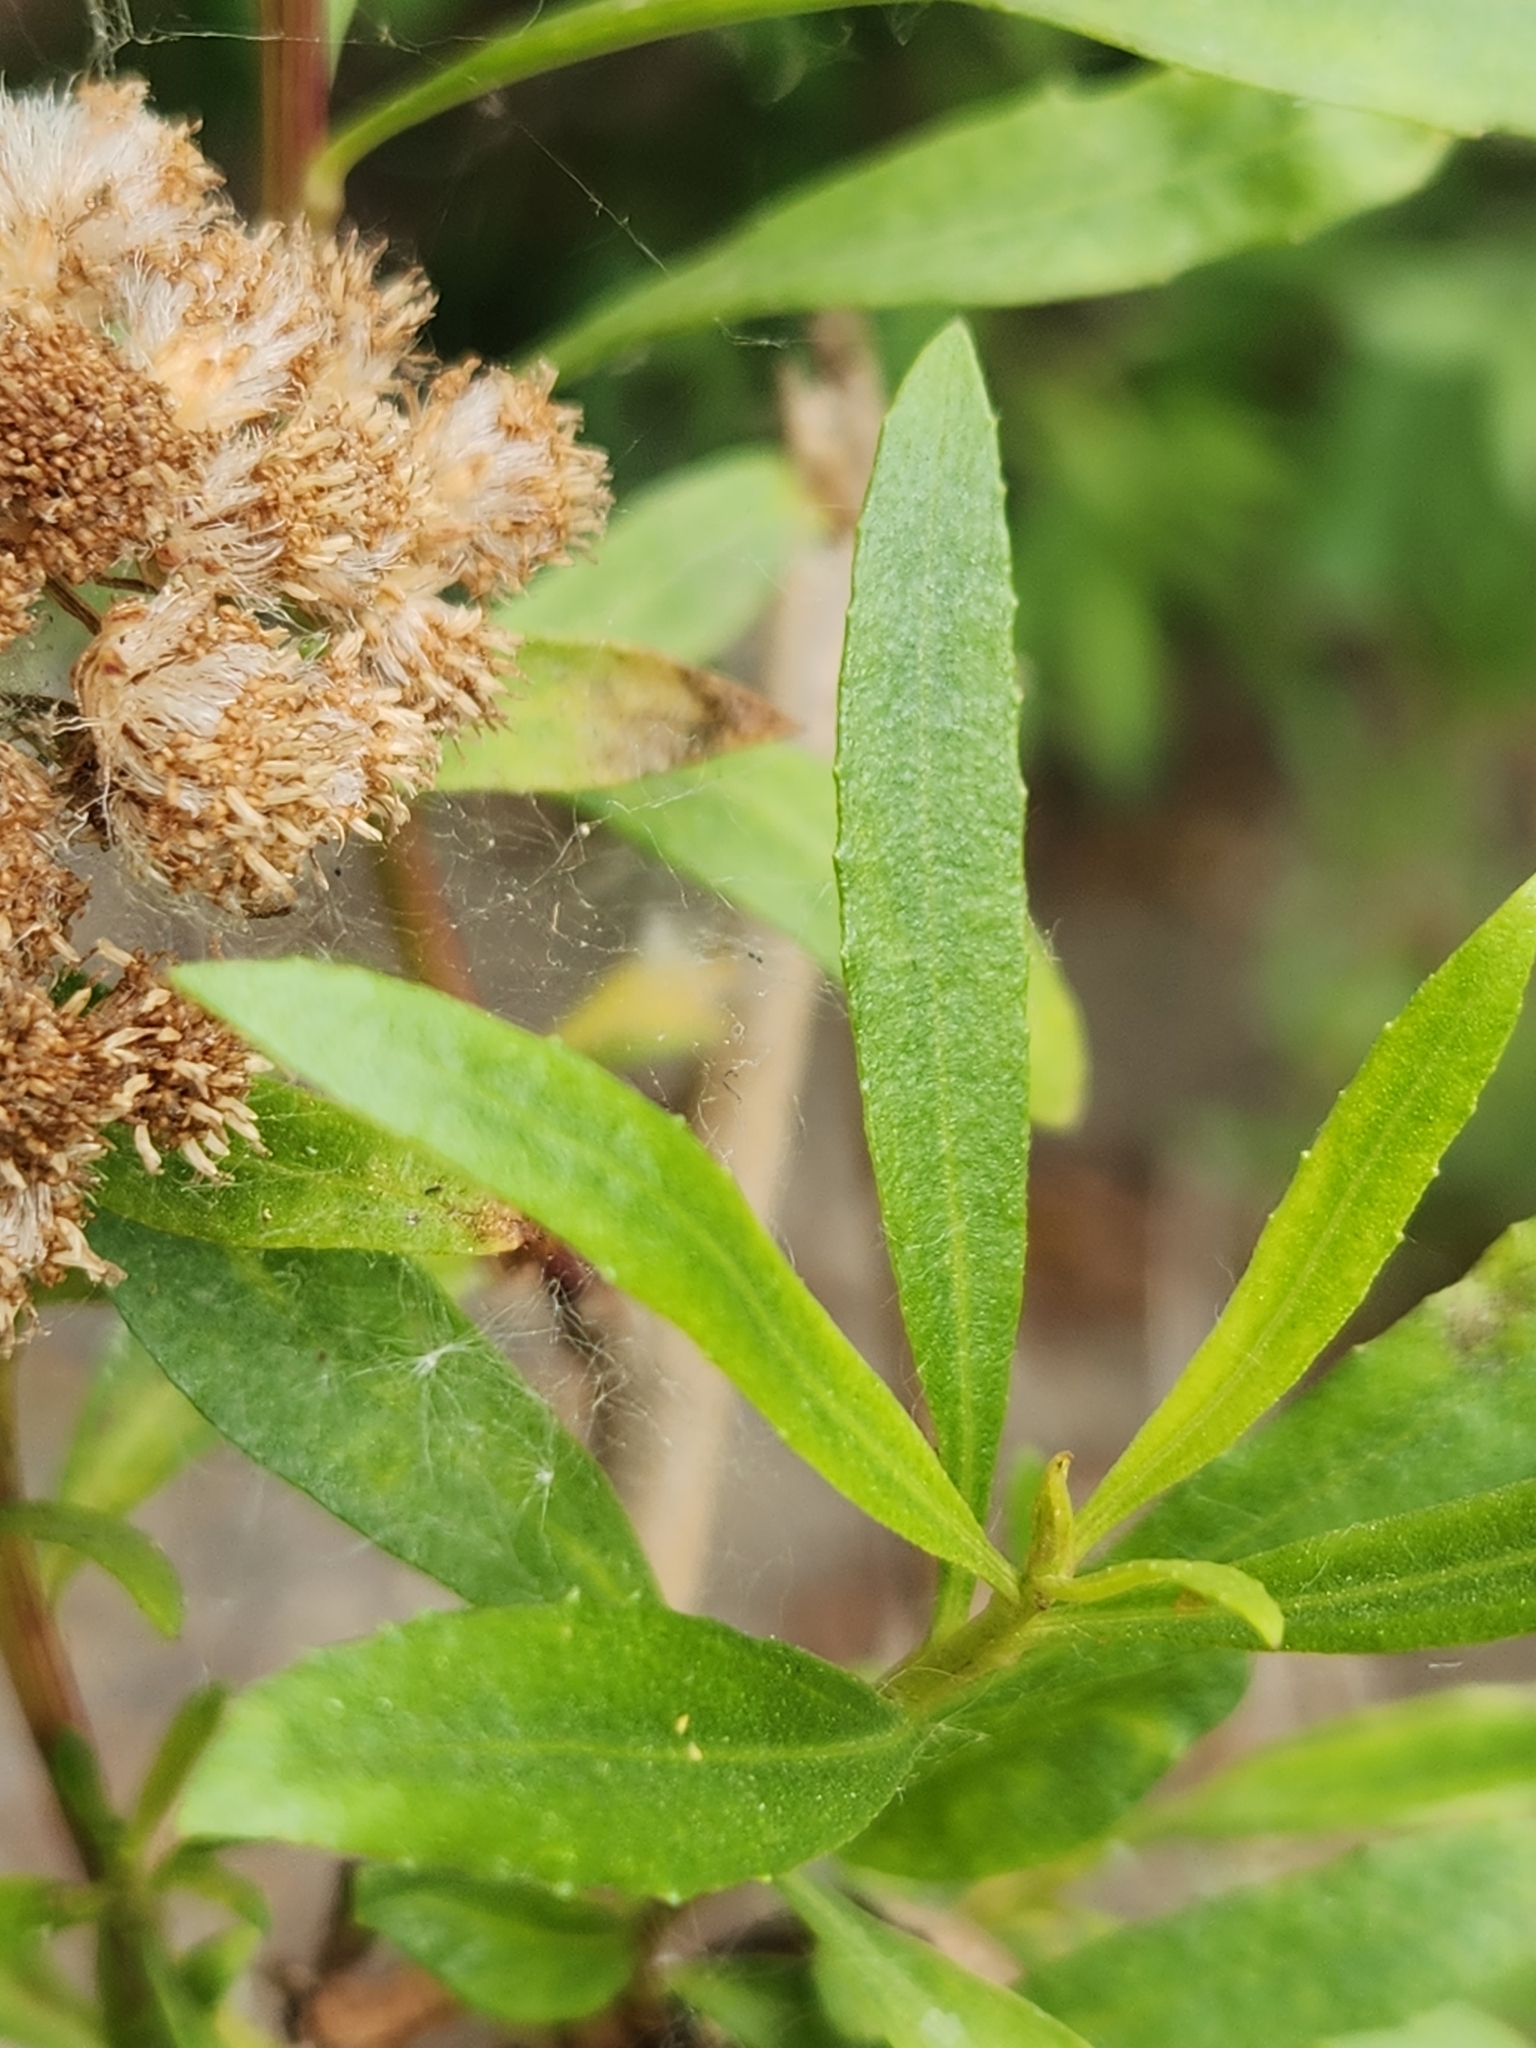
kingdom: Plantae
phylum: Tracheophyta
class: Magnoliopsida
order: Asterales
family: Asteraceae
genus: Baccharis
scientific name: Baccharis salicifolia
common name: Sticky baccharis
